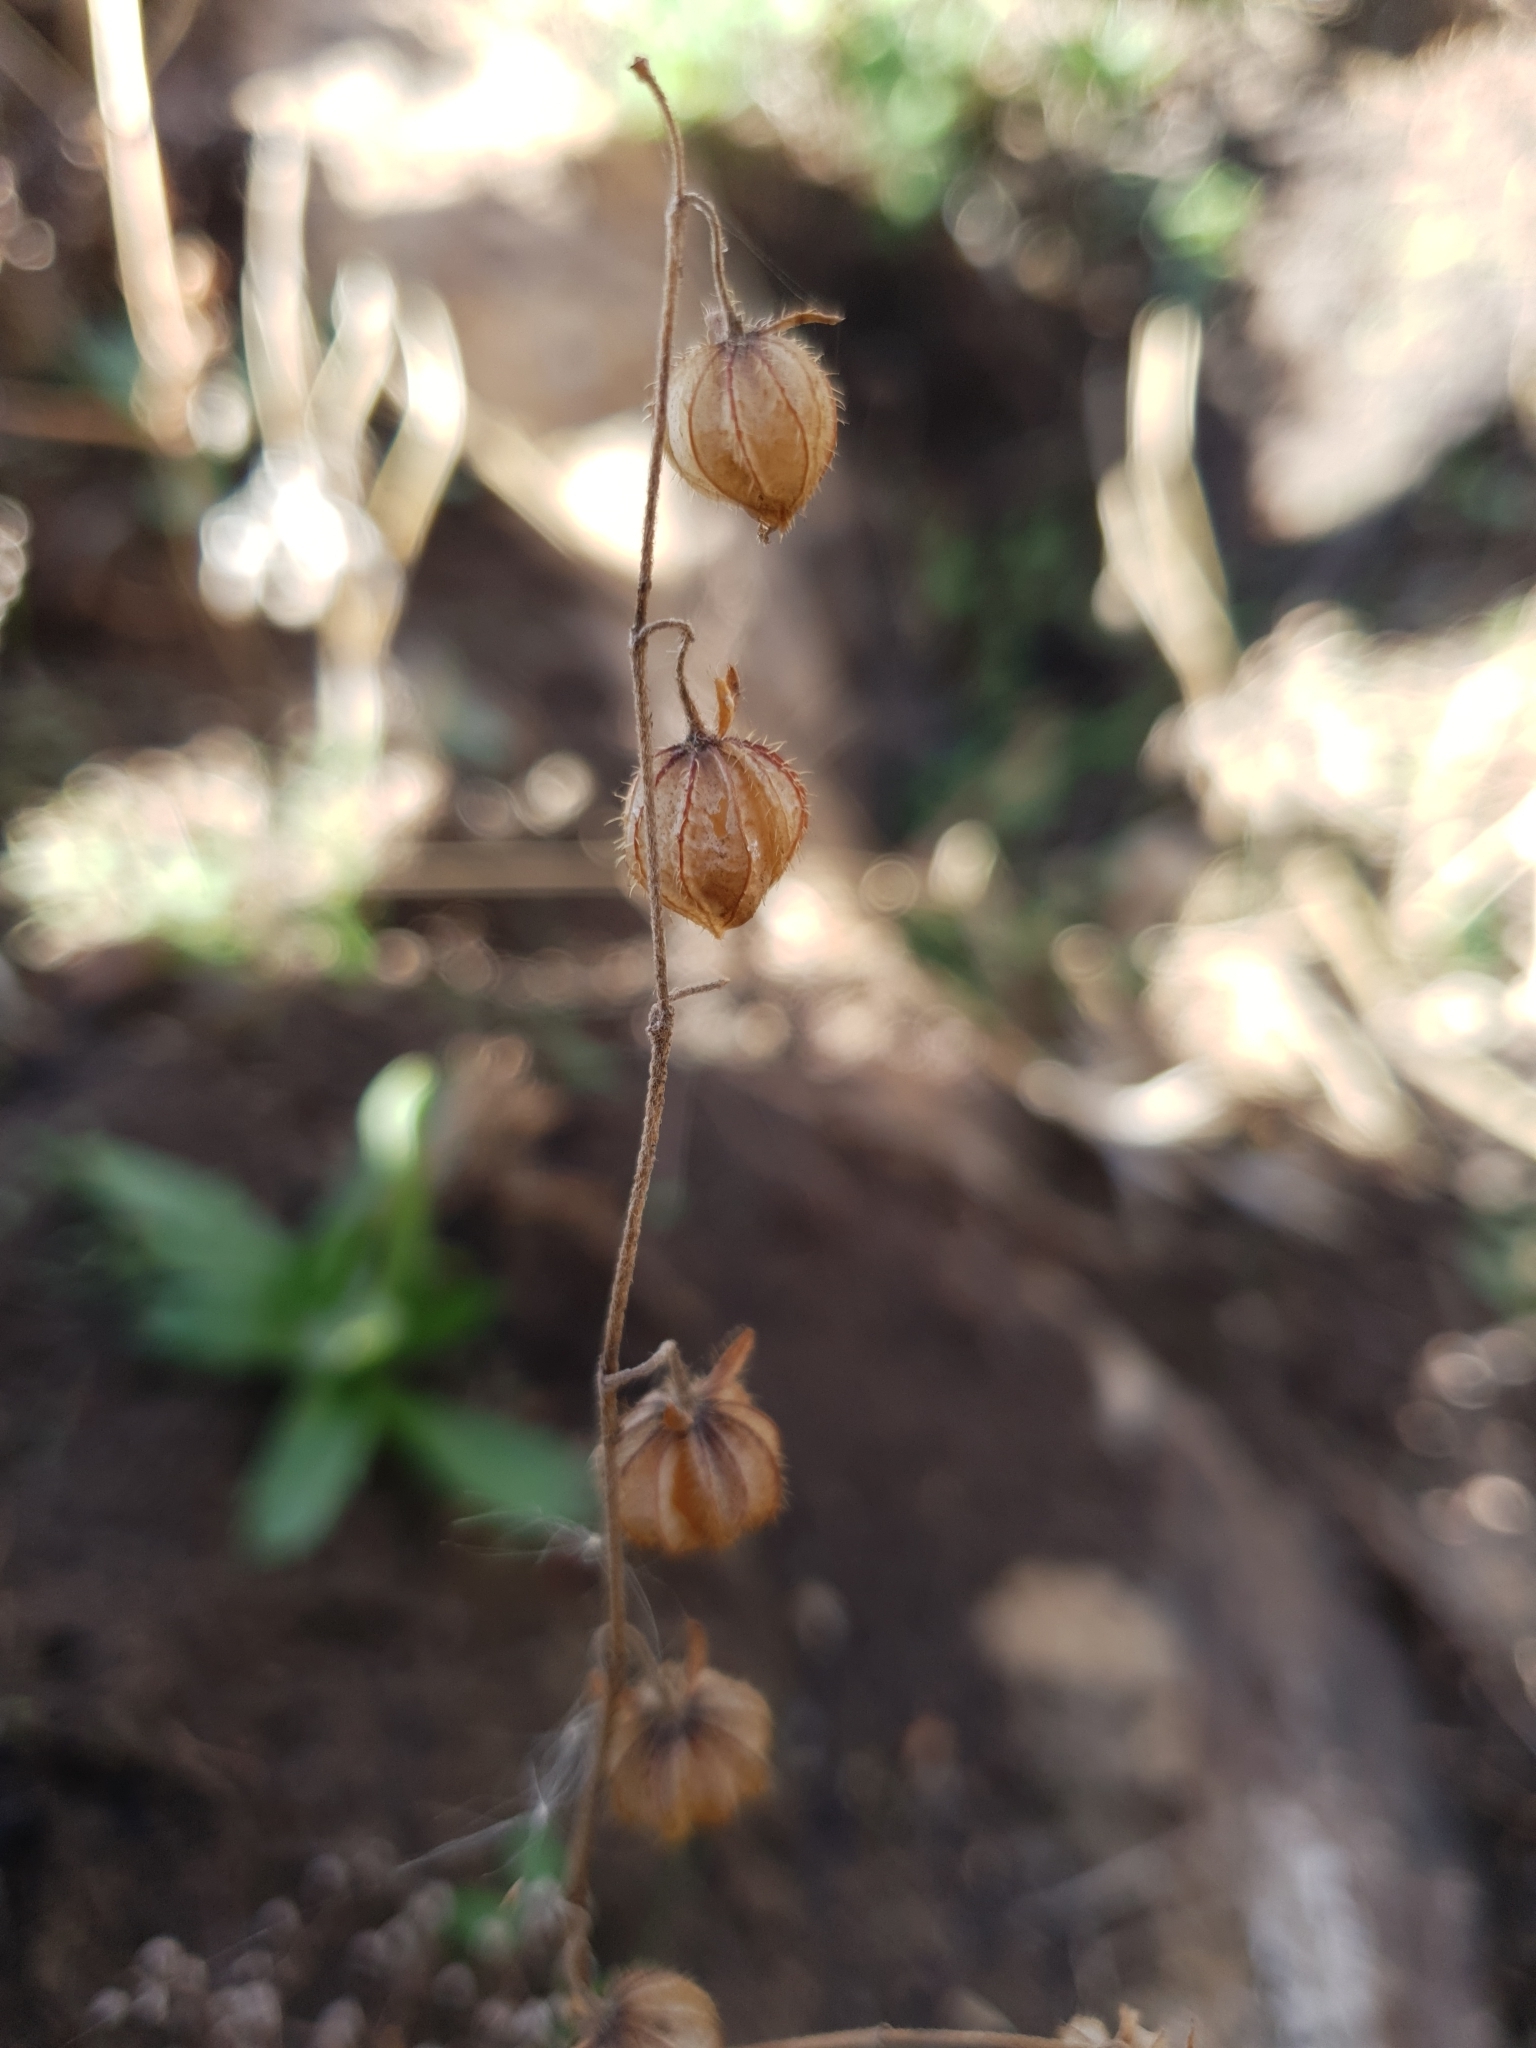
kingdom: Plantae
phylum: Tracheophyta
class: Magnoliopsida
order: Malvales
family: Cistaceae
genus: Helianthemum
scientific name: Helianthemum aegyptiacum
